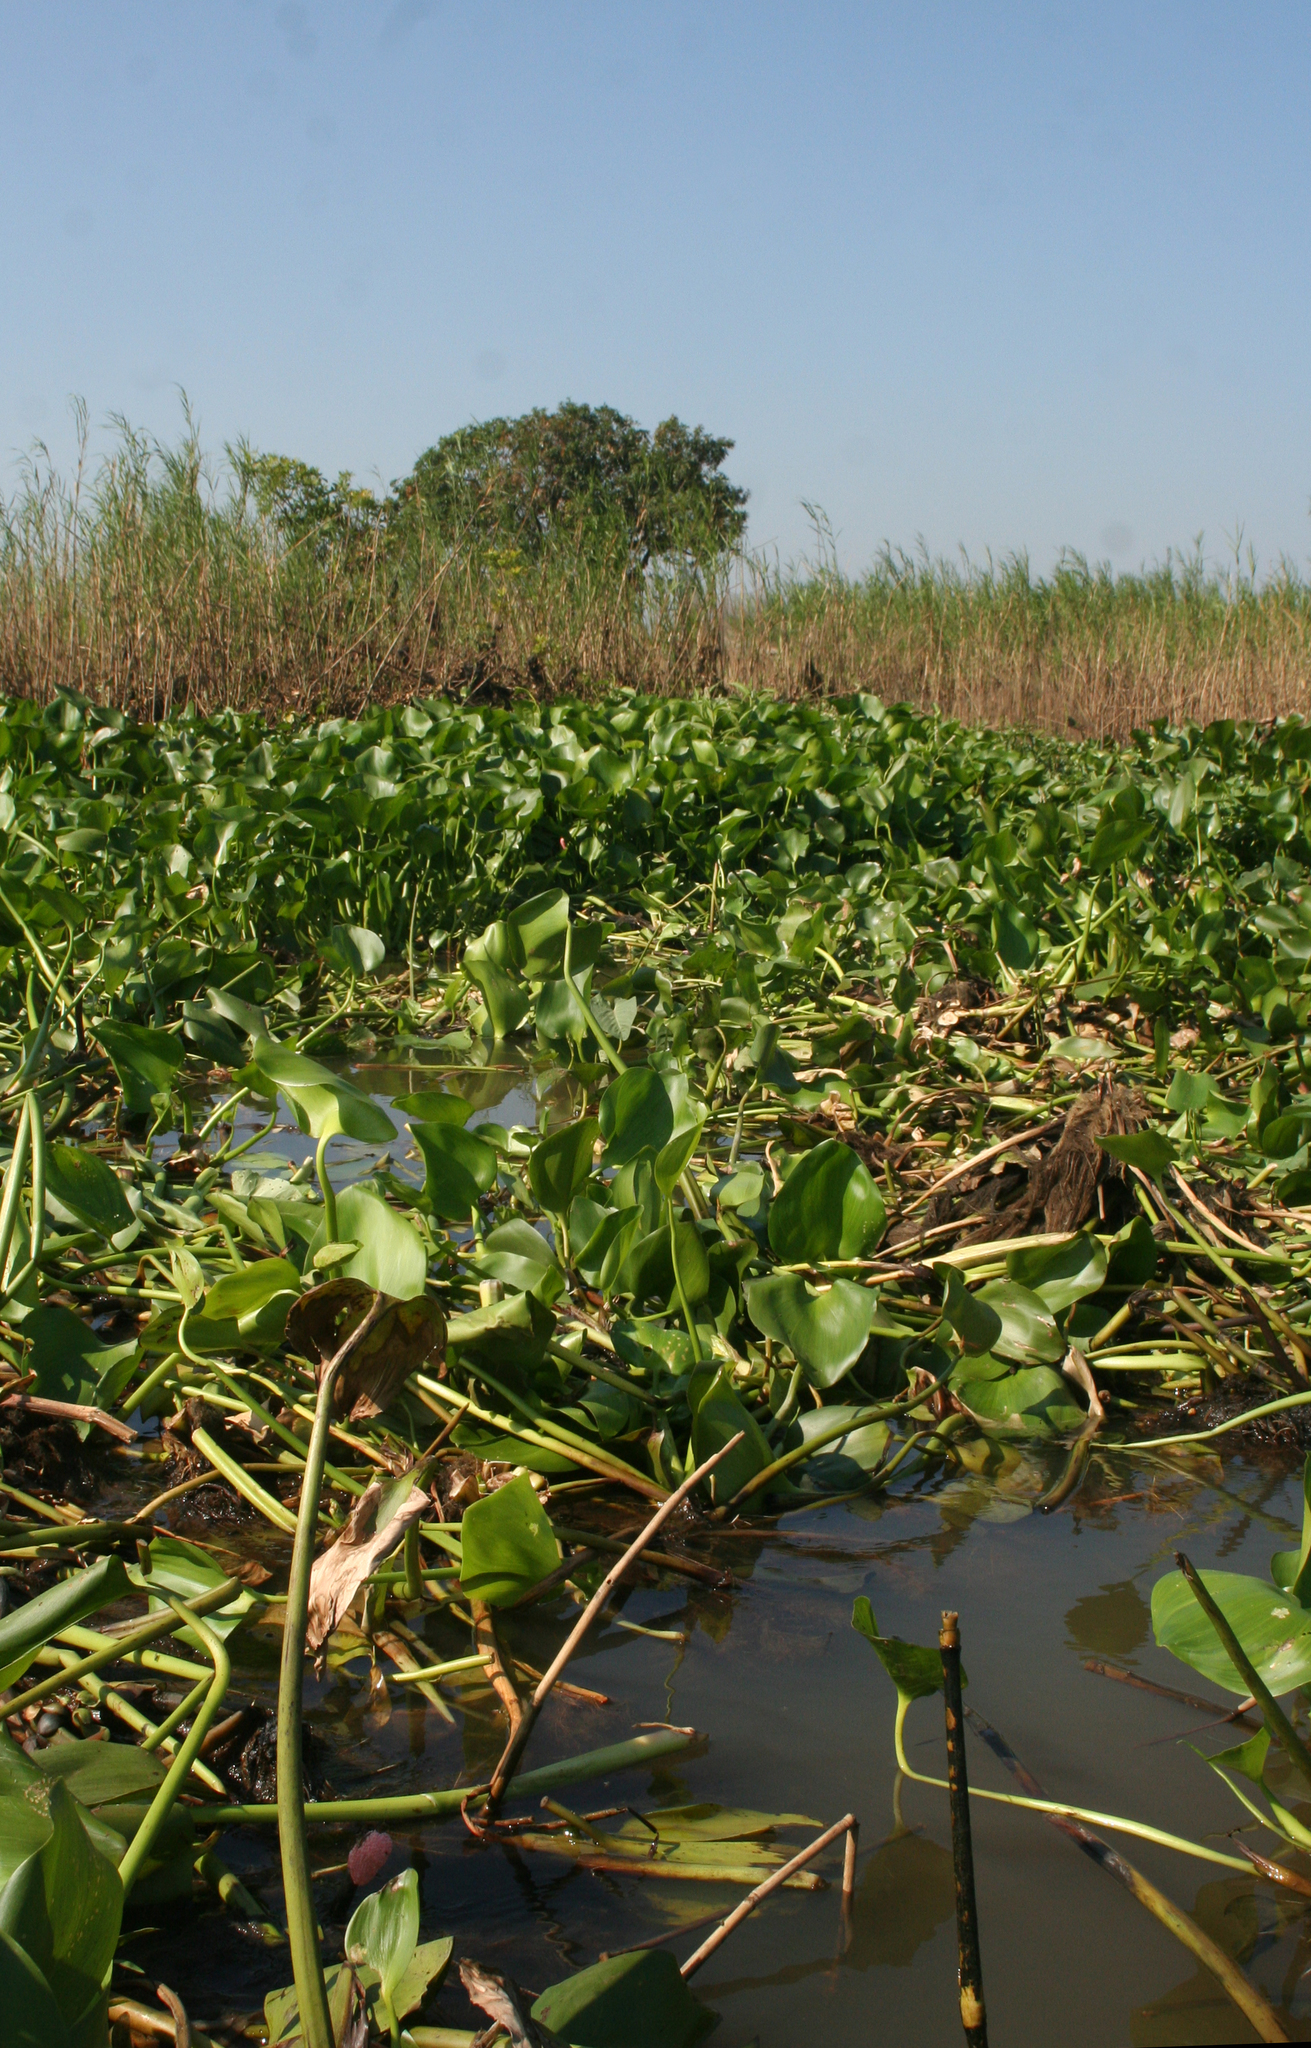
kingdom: Plantae
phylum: Tracheophyta
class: Liliopsida
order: Commelinales
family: Pontederiaceae
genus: Pontederia
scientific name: Pontederia crassipes
